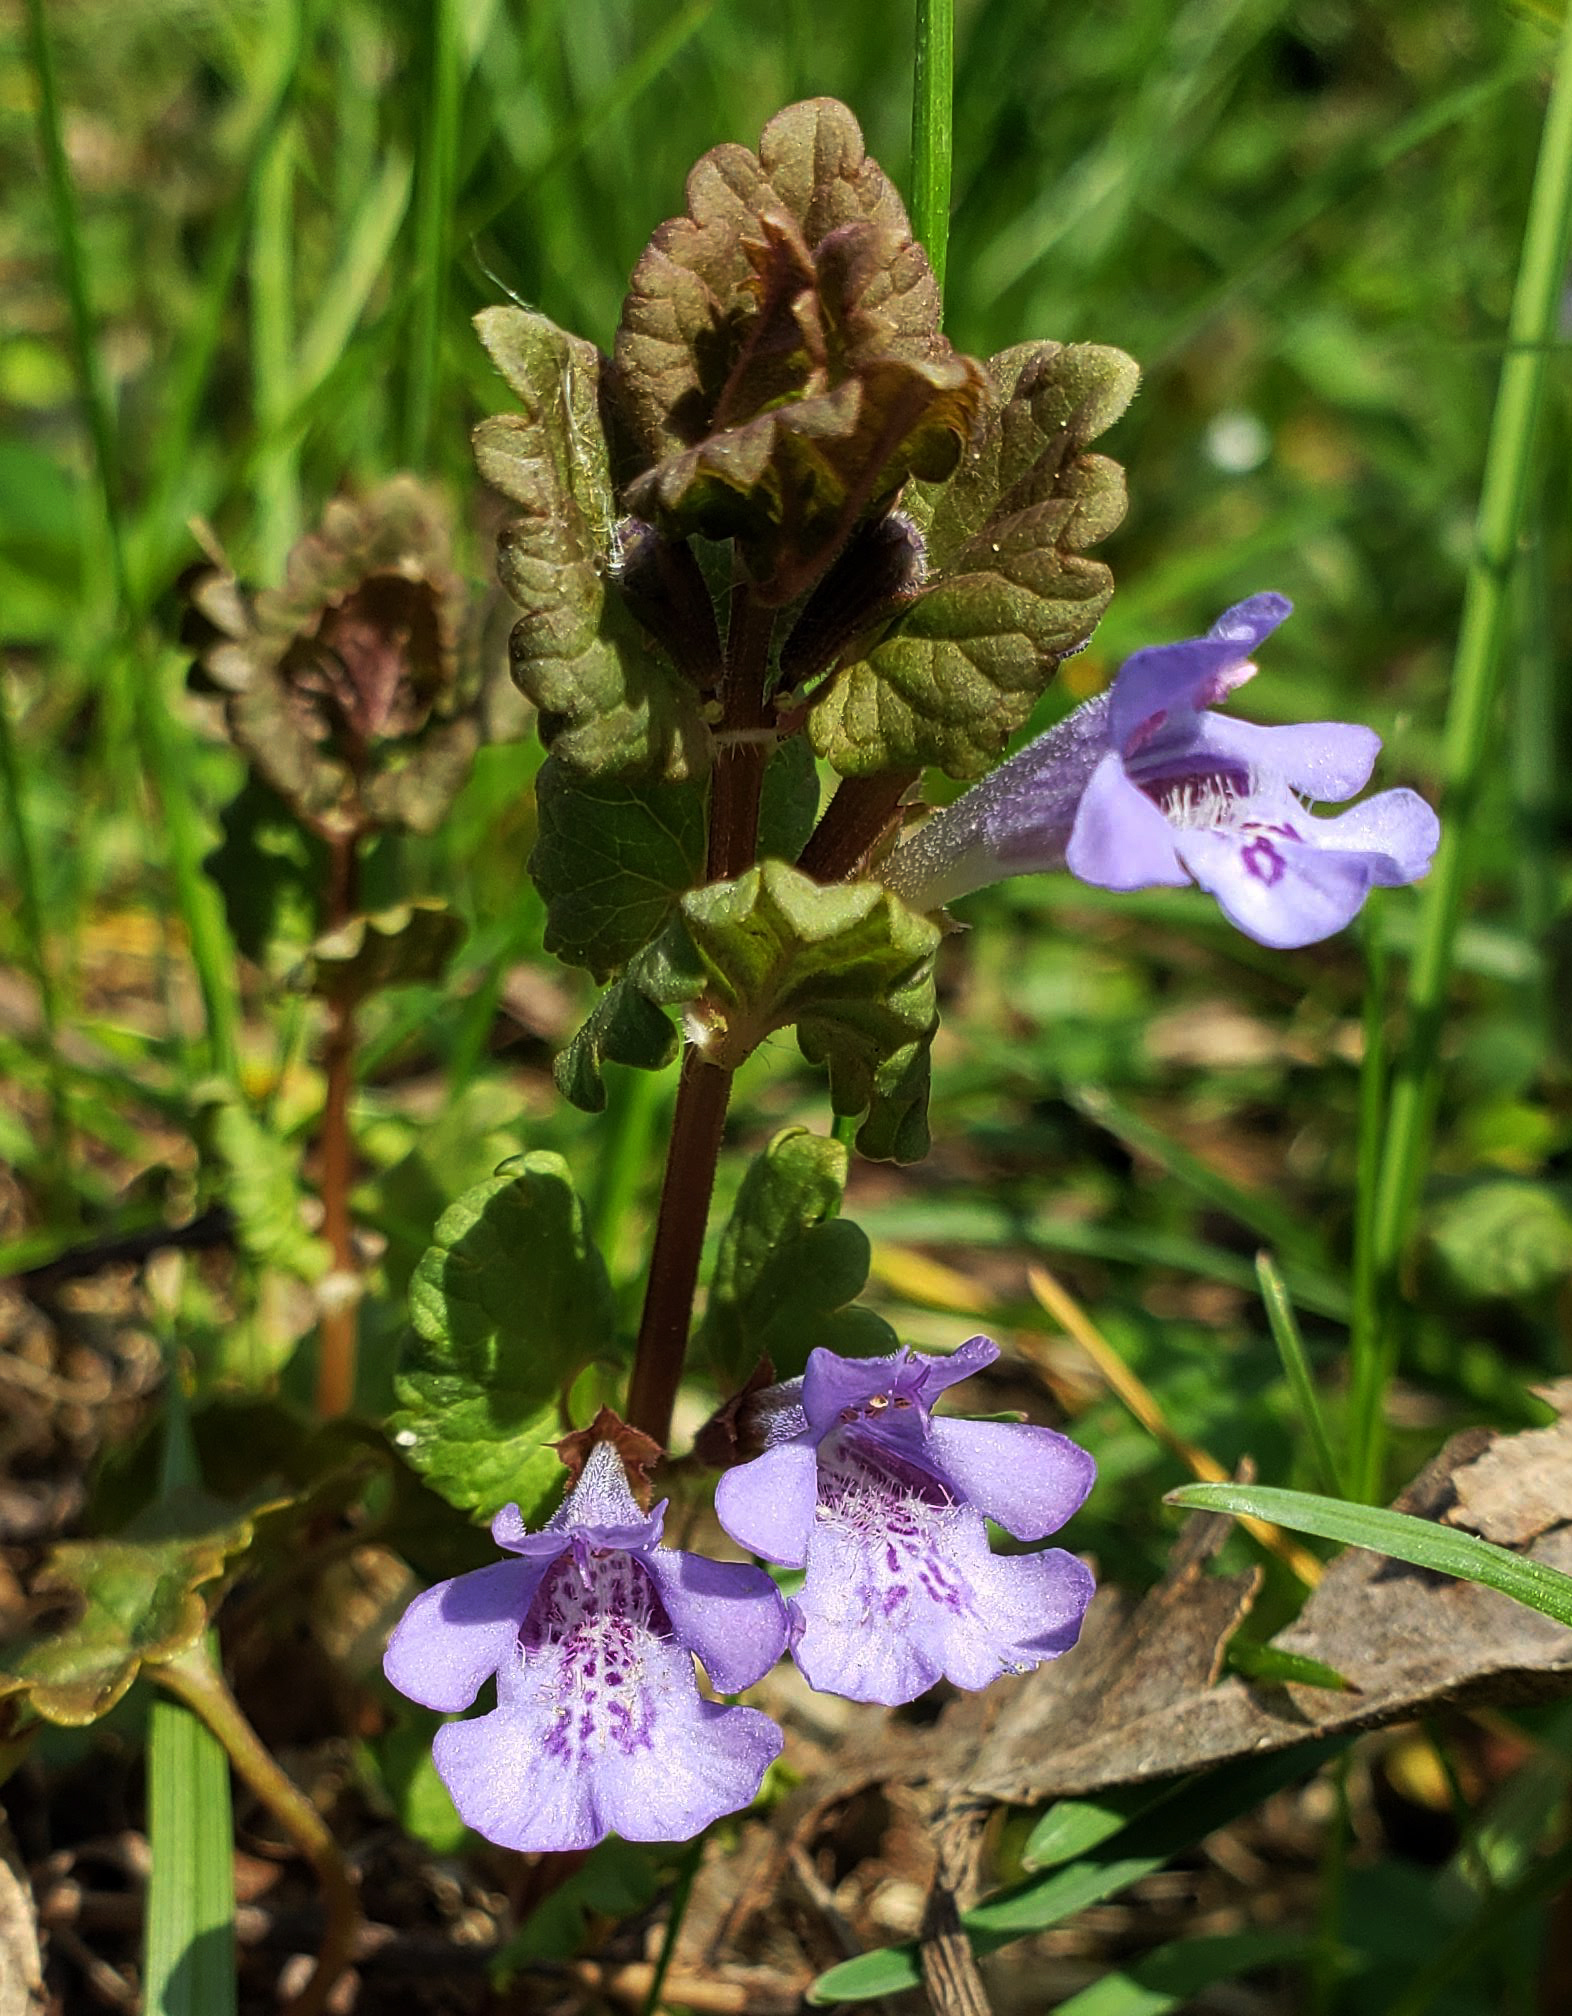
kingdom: Plantae
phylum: Tracheophyta
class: Magnoliopsida
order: Lamiales
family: Lamiaceae
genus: Glechoma
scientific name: Glechoma hederacea
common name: Ground ivy
